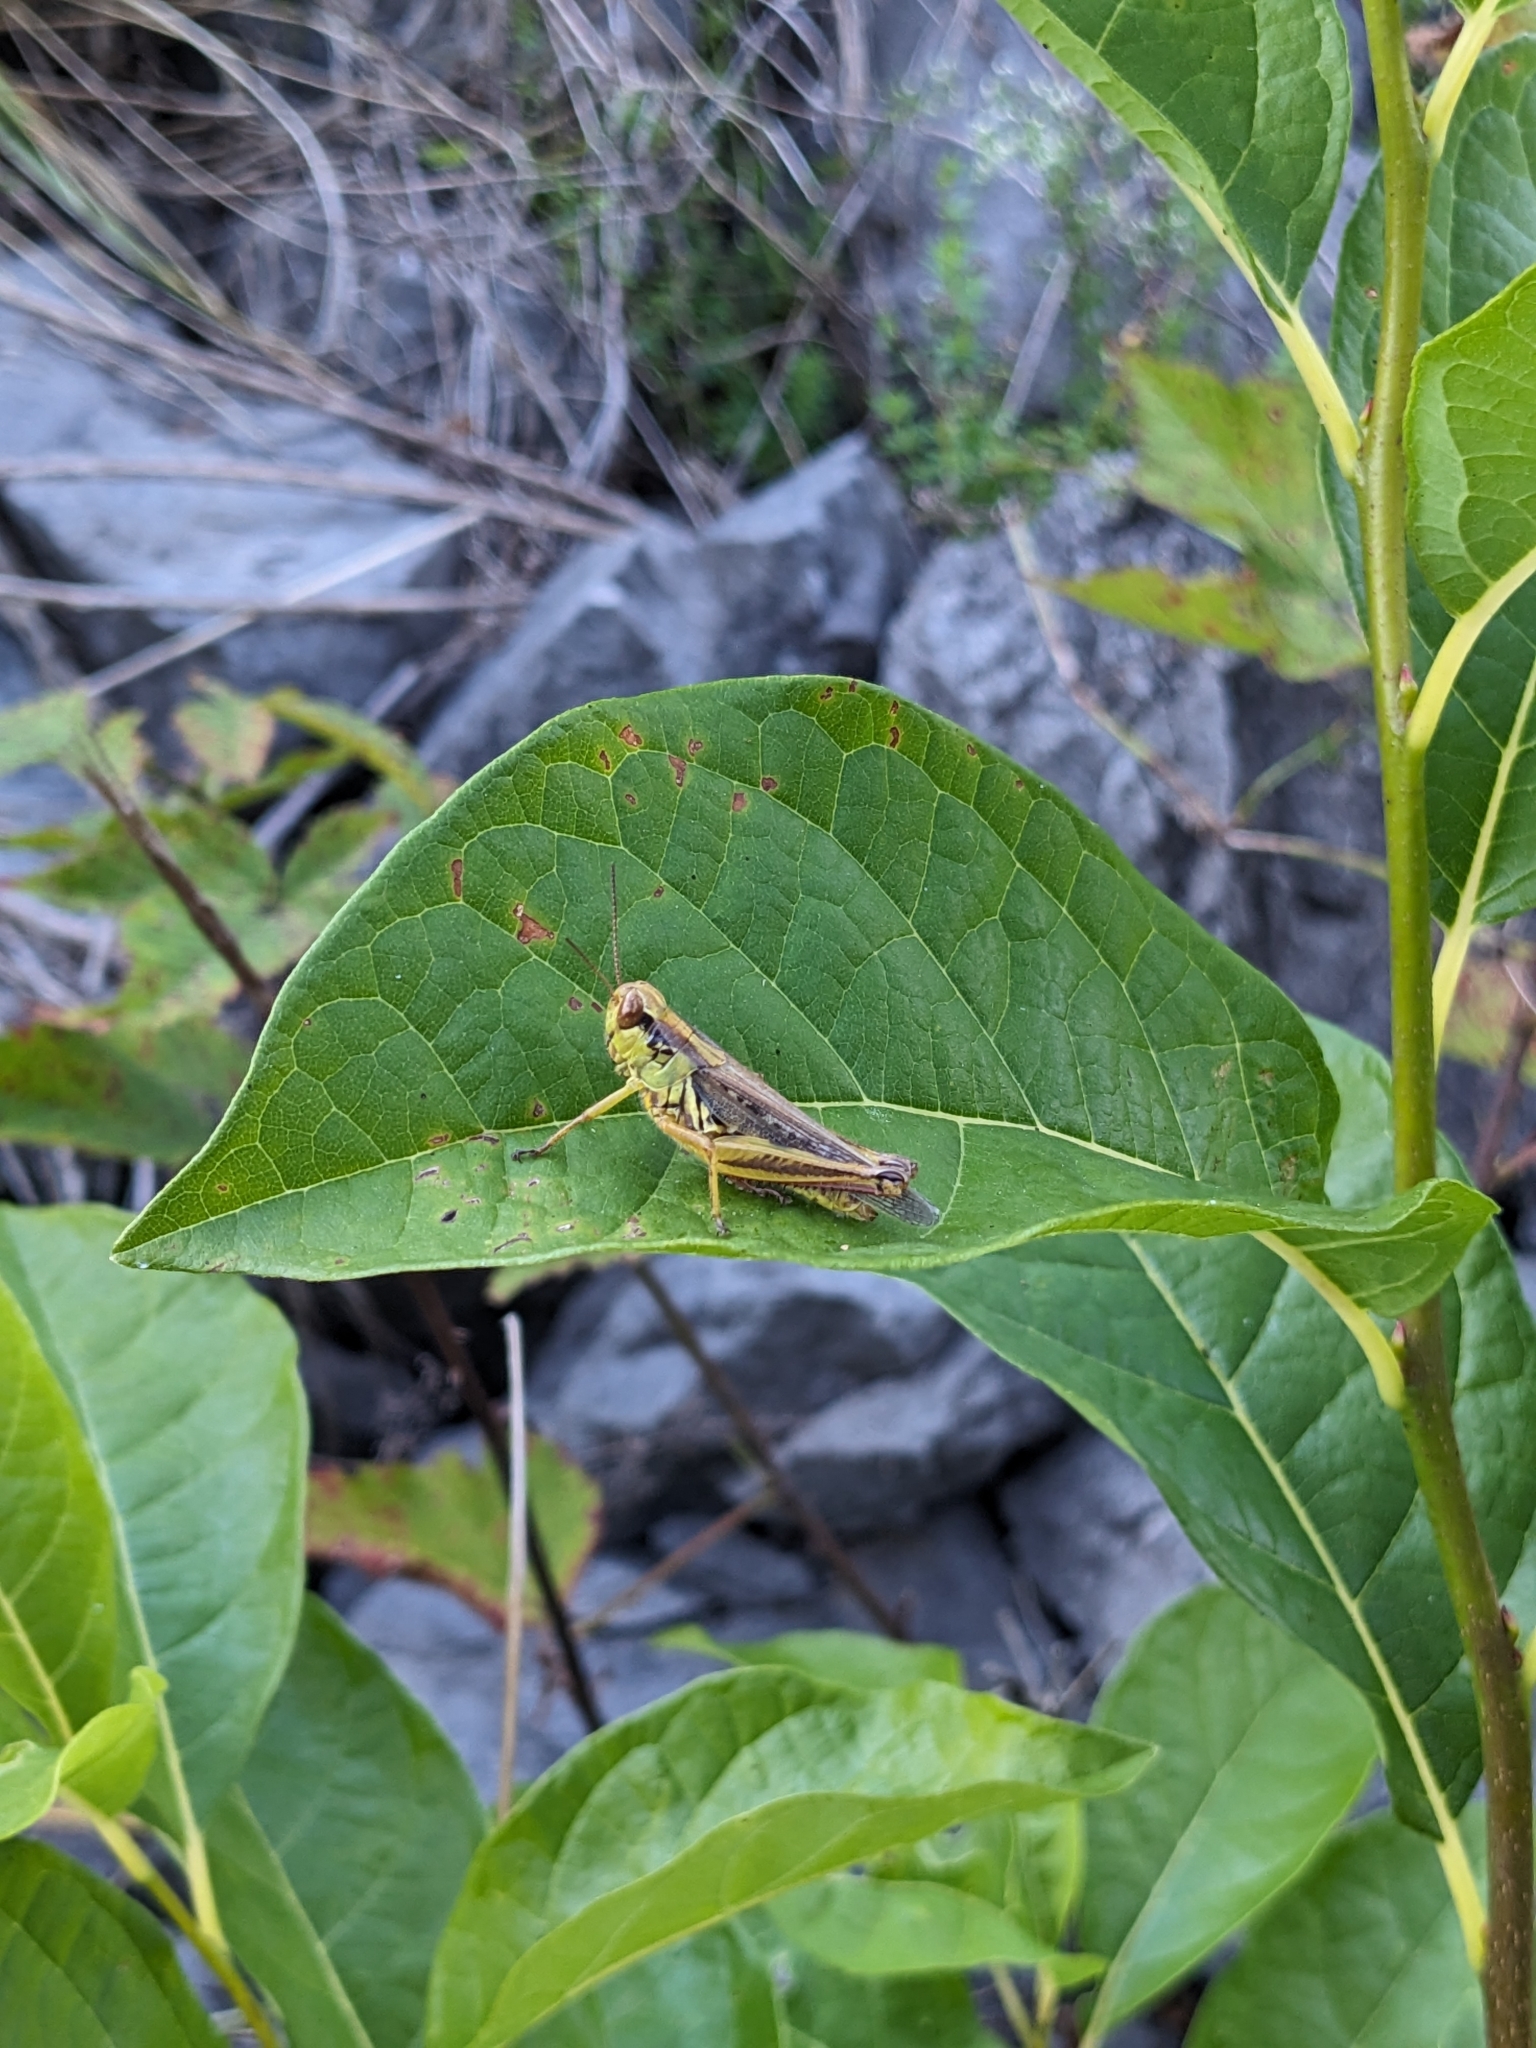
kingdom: Animalia
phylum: Arthropoda
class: Insecta
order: Orthoptera
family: Acrididae
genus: Melanoplus
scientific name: Melanoplus femurrubrum
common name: Red-legged grasshopper
